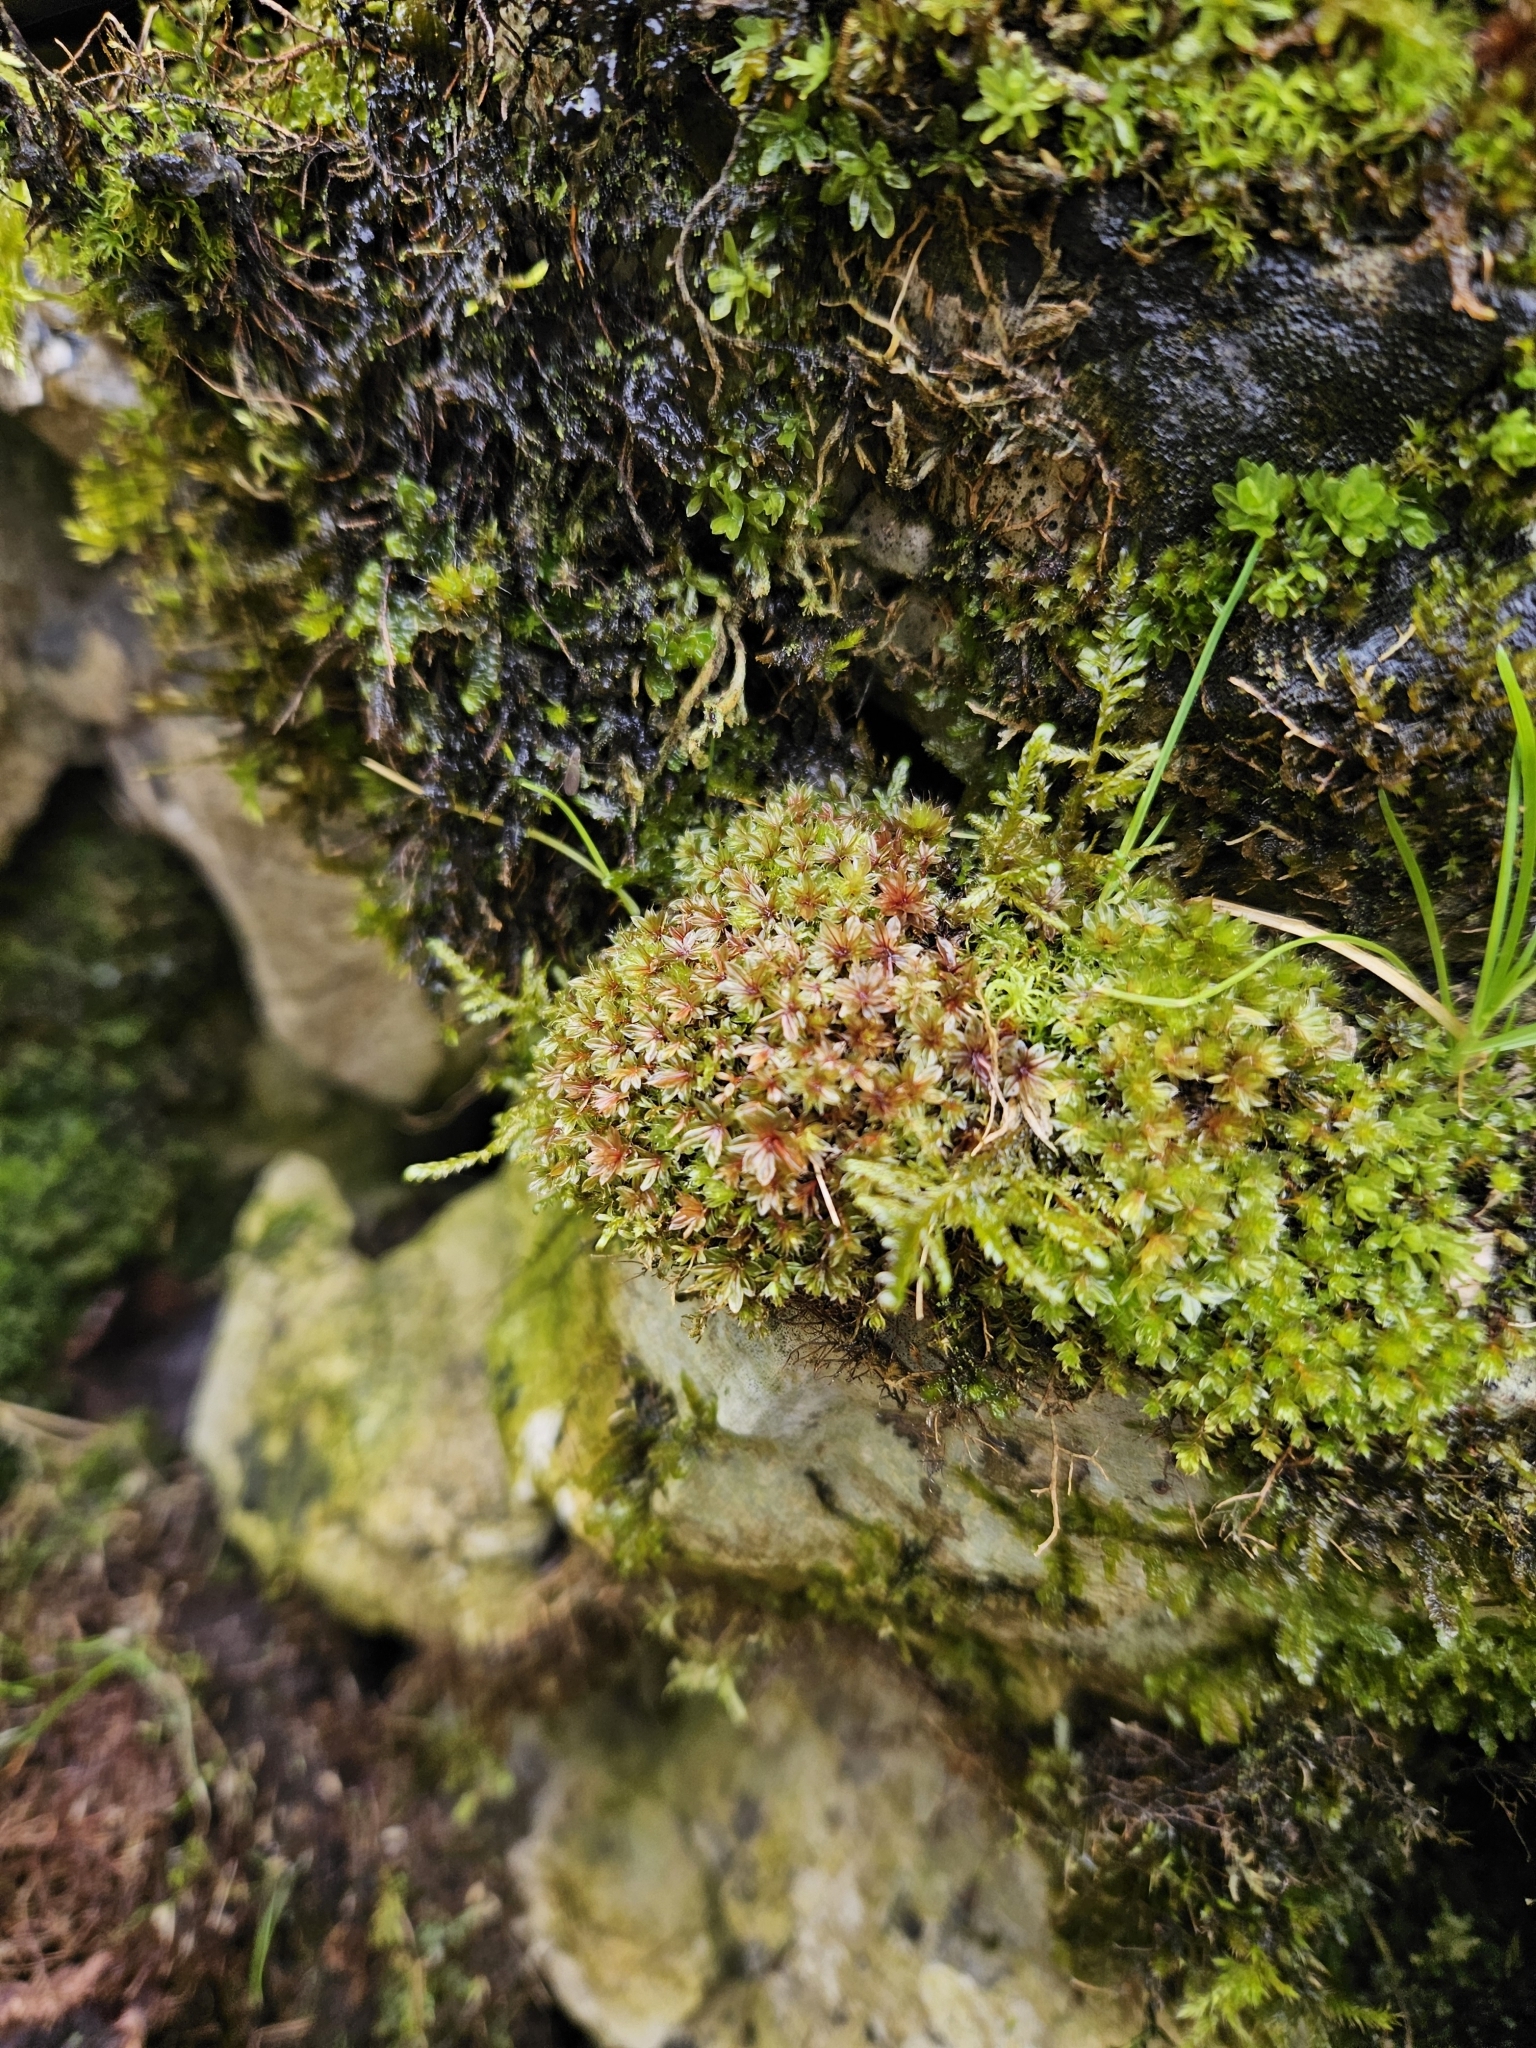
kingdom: Plantae
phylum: Bryophyta
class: Bryopsida
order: Bryales
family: Bryaceae
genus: Rosulabryum
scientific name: Rosulabryum capillare
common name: Capillary thread-moss
